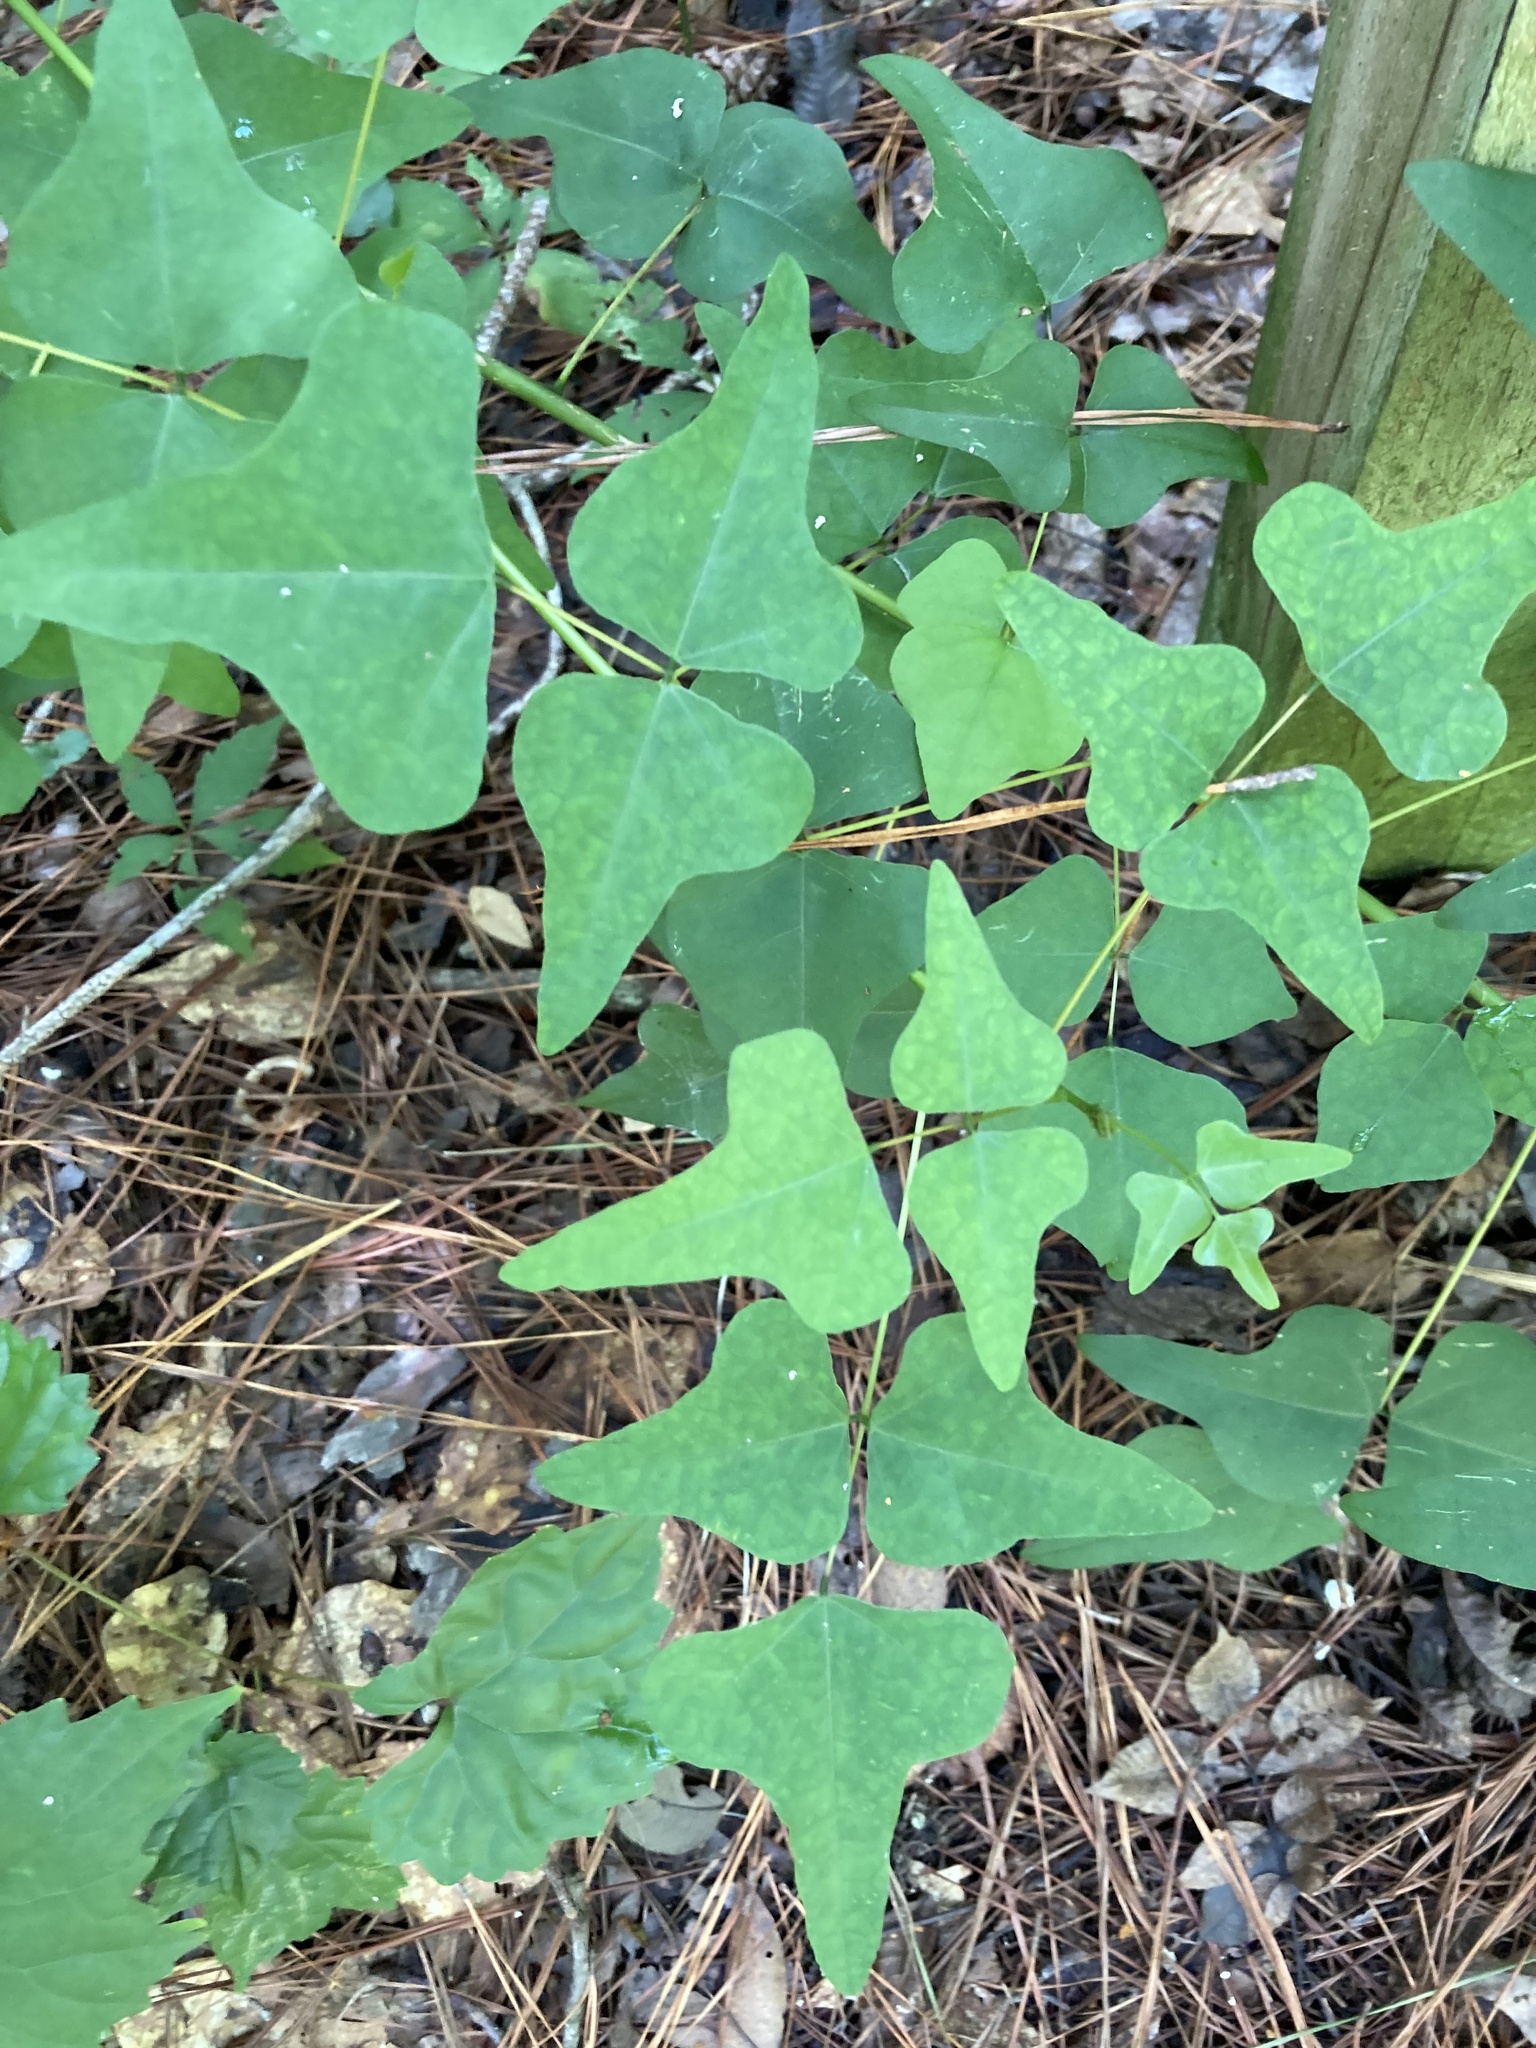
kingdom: Plantae
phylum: Tracheophyta
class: Magnoliopsida
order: Fabales
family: Fabaceae
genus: Erythrina
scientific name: Erythrina herbacea
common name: Coral-bean
